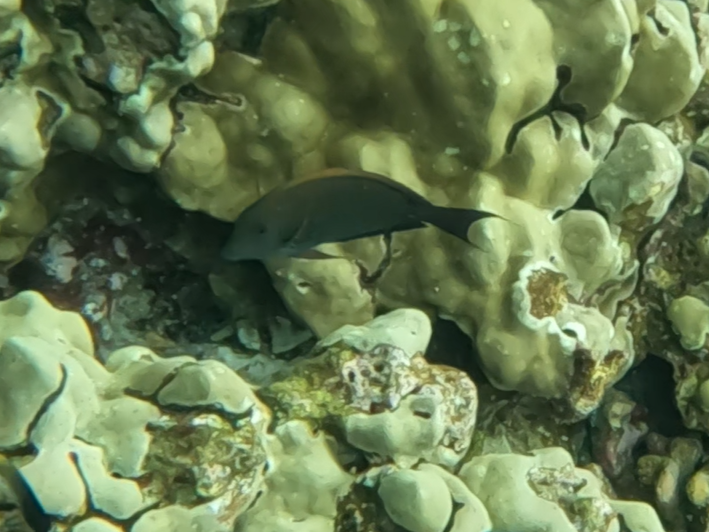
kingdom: Animalia
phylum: Chordata
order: Perciformes
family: Acanthuridae
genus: Acanthurus
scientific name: Acanthurus nigrofuscus
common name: Blackspot surgeonfish
